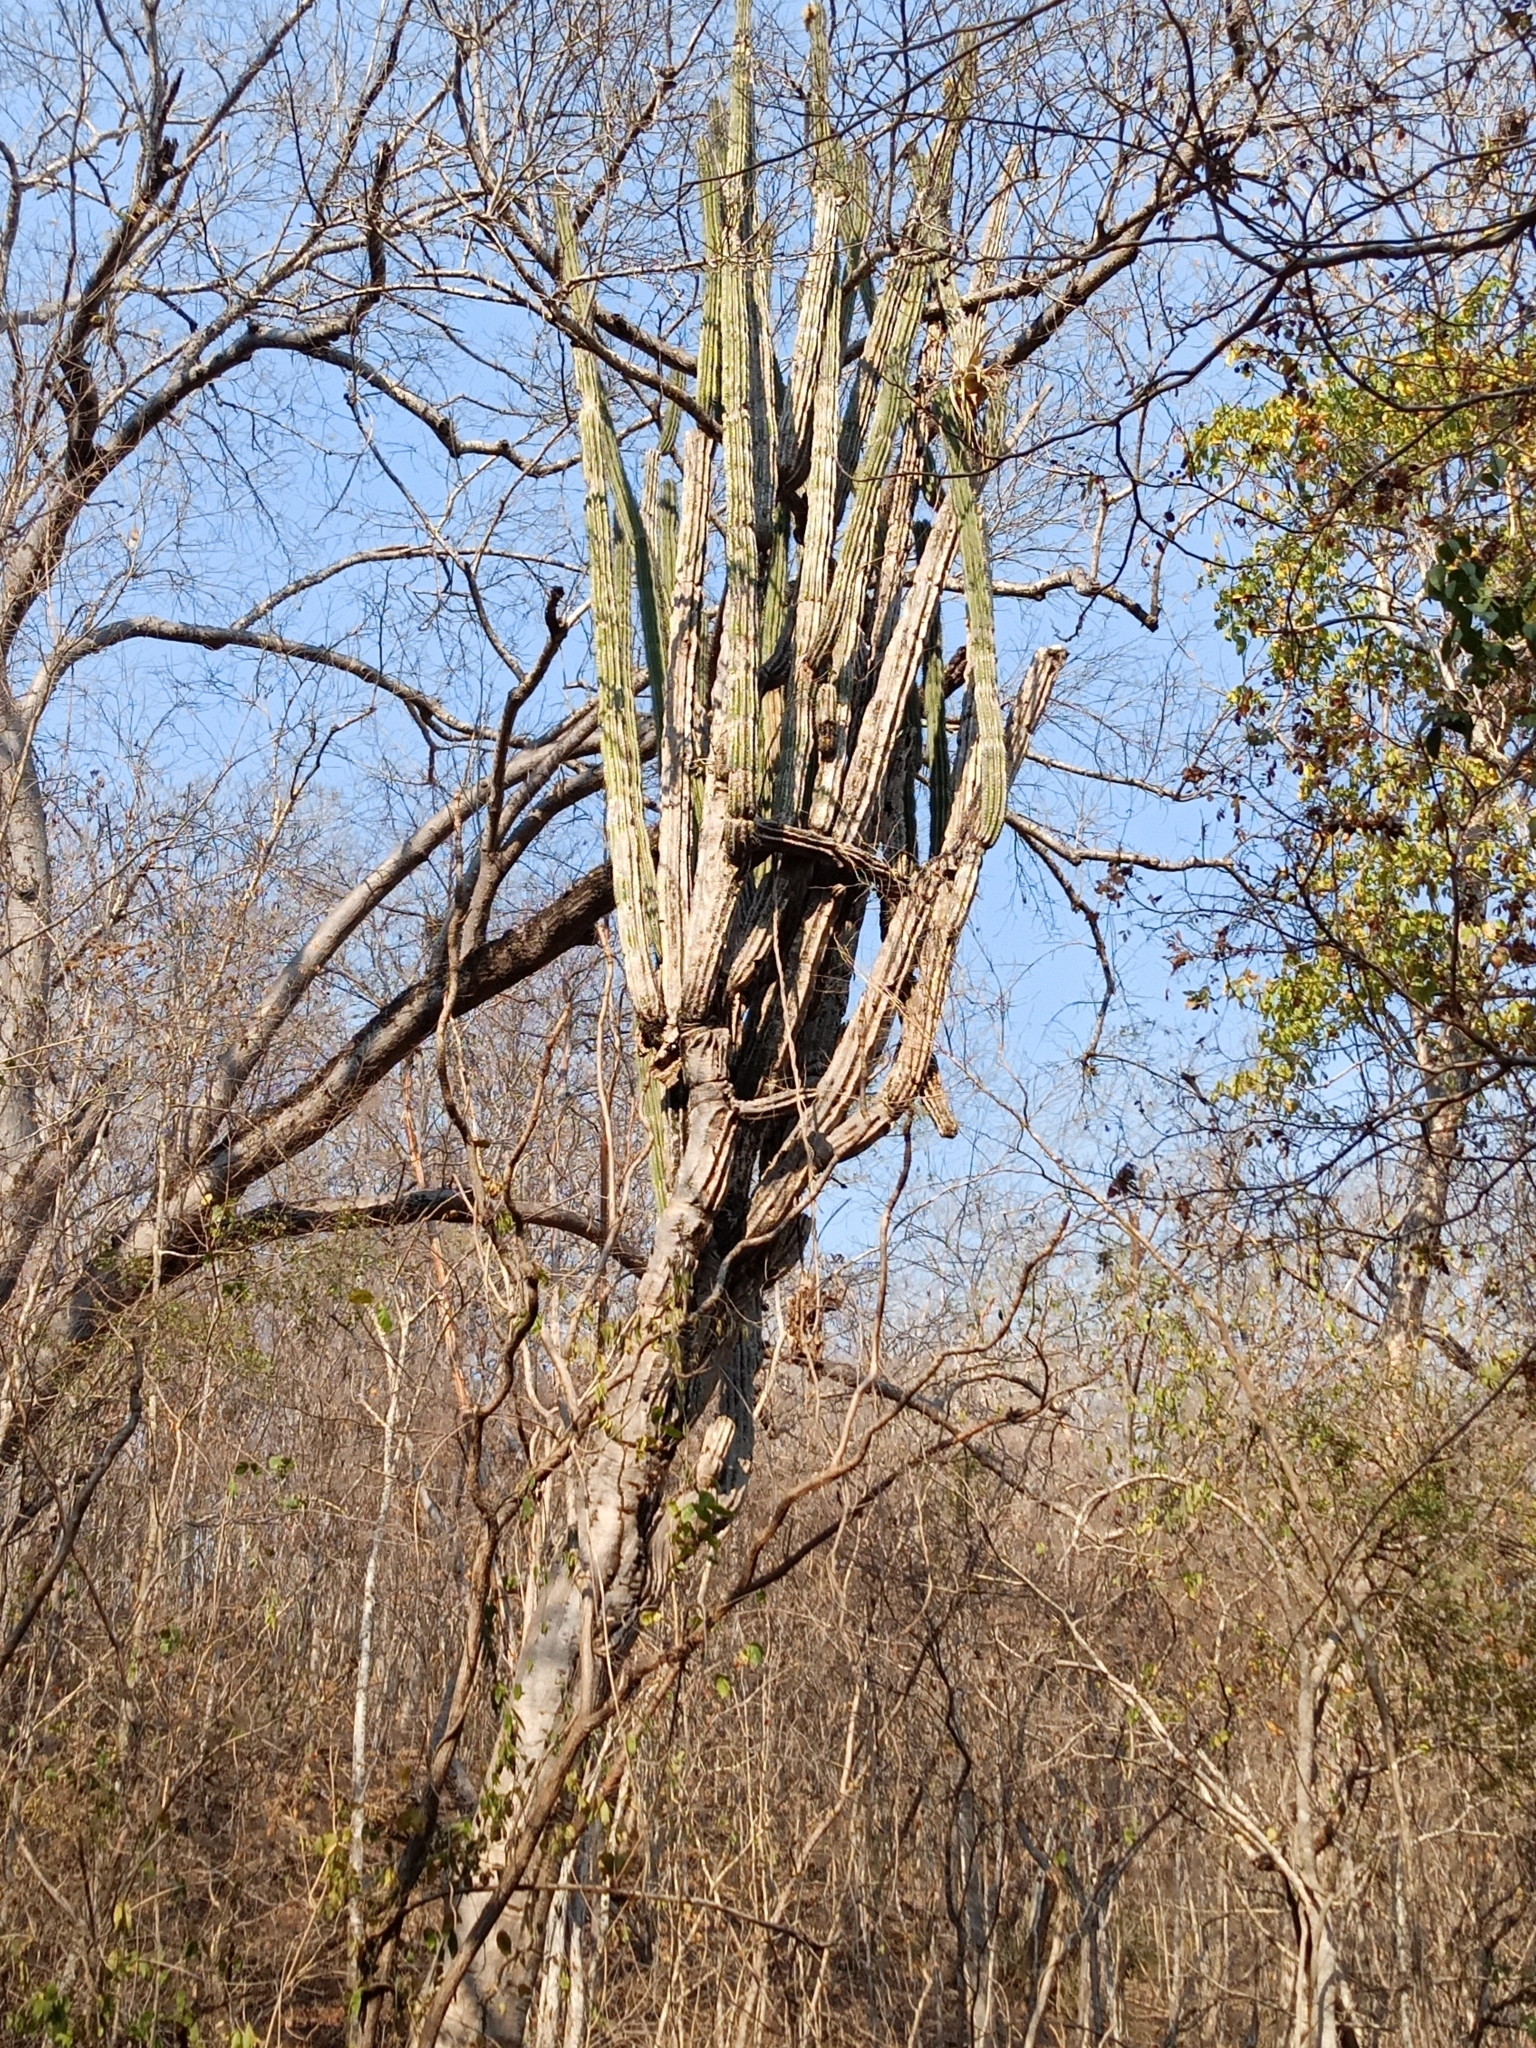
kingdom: Plantae
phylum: Tracheophyta
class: Magnoliopsida
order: Caryophyllales
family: Cactaceae
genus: Pachycereus
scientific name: Pachycereus pecten-aboriginum
